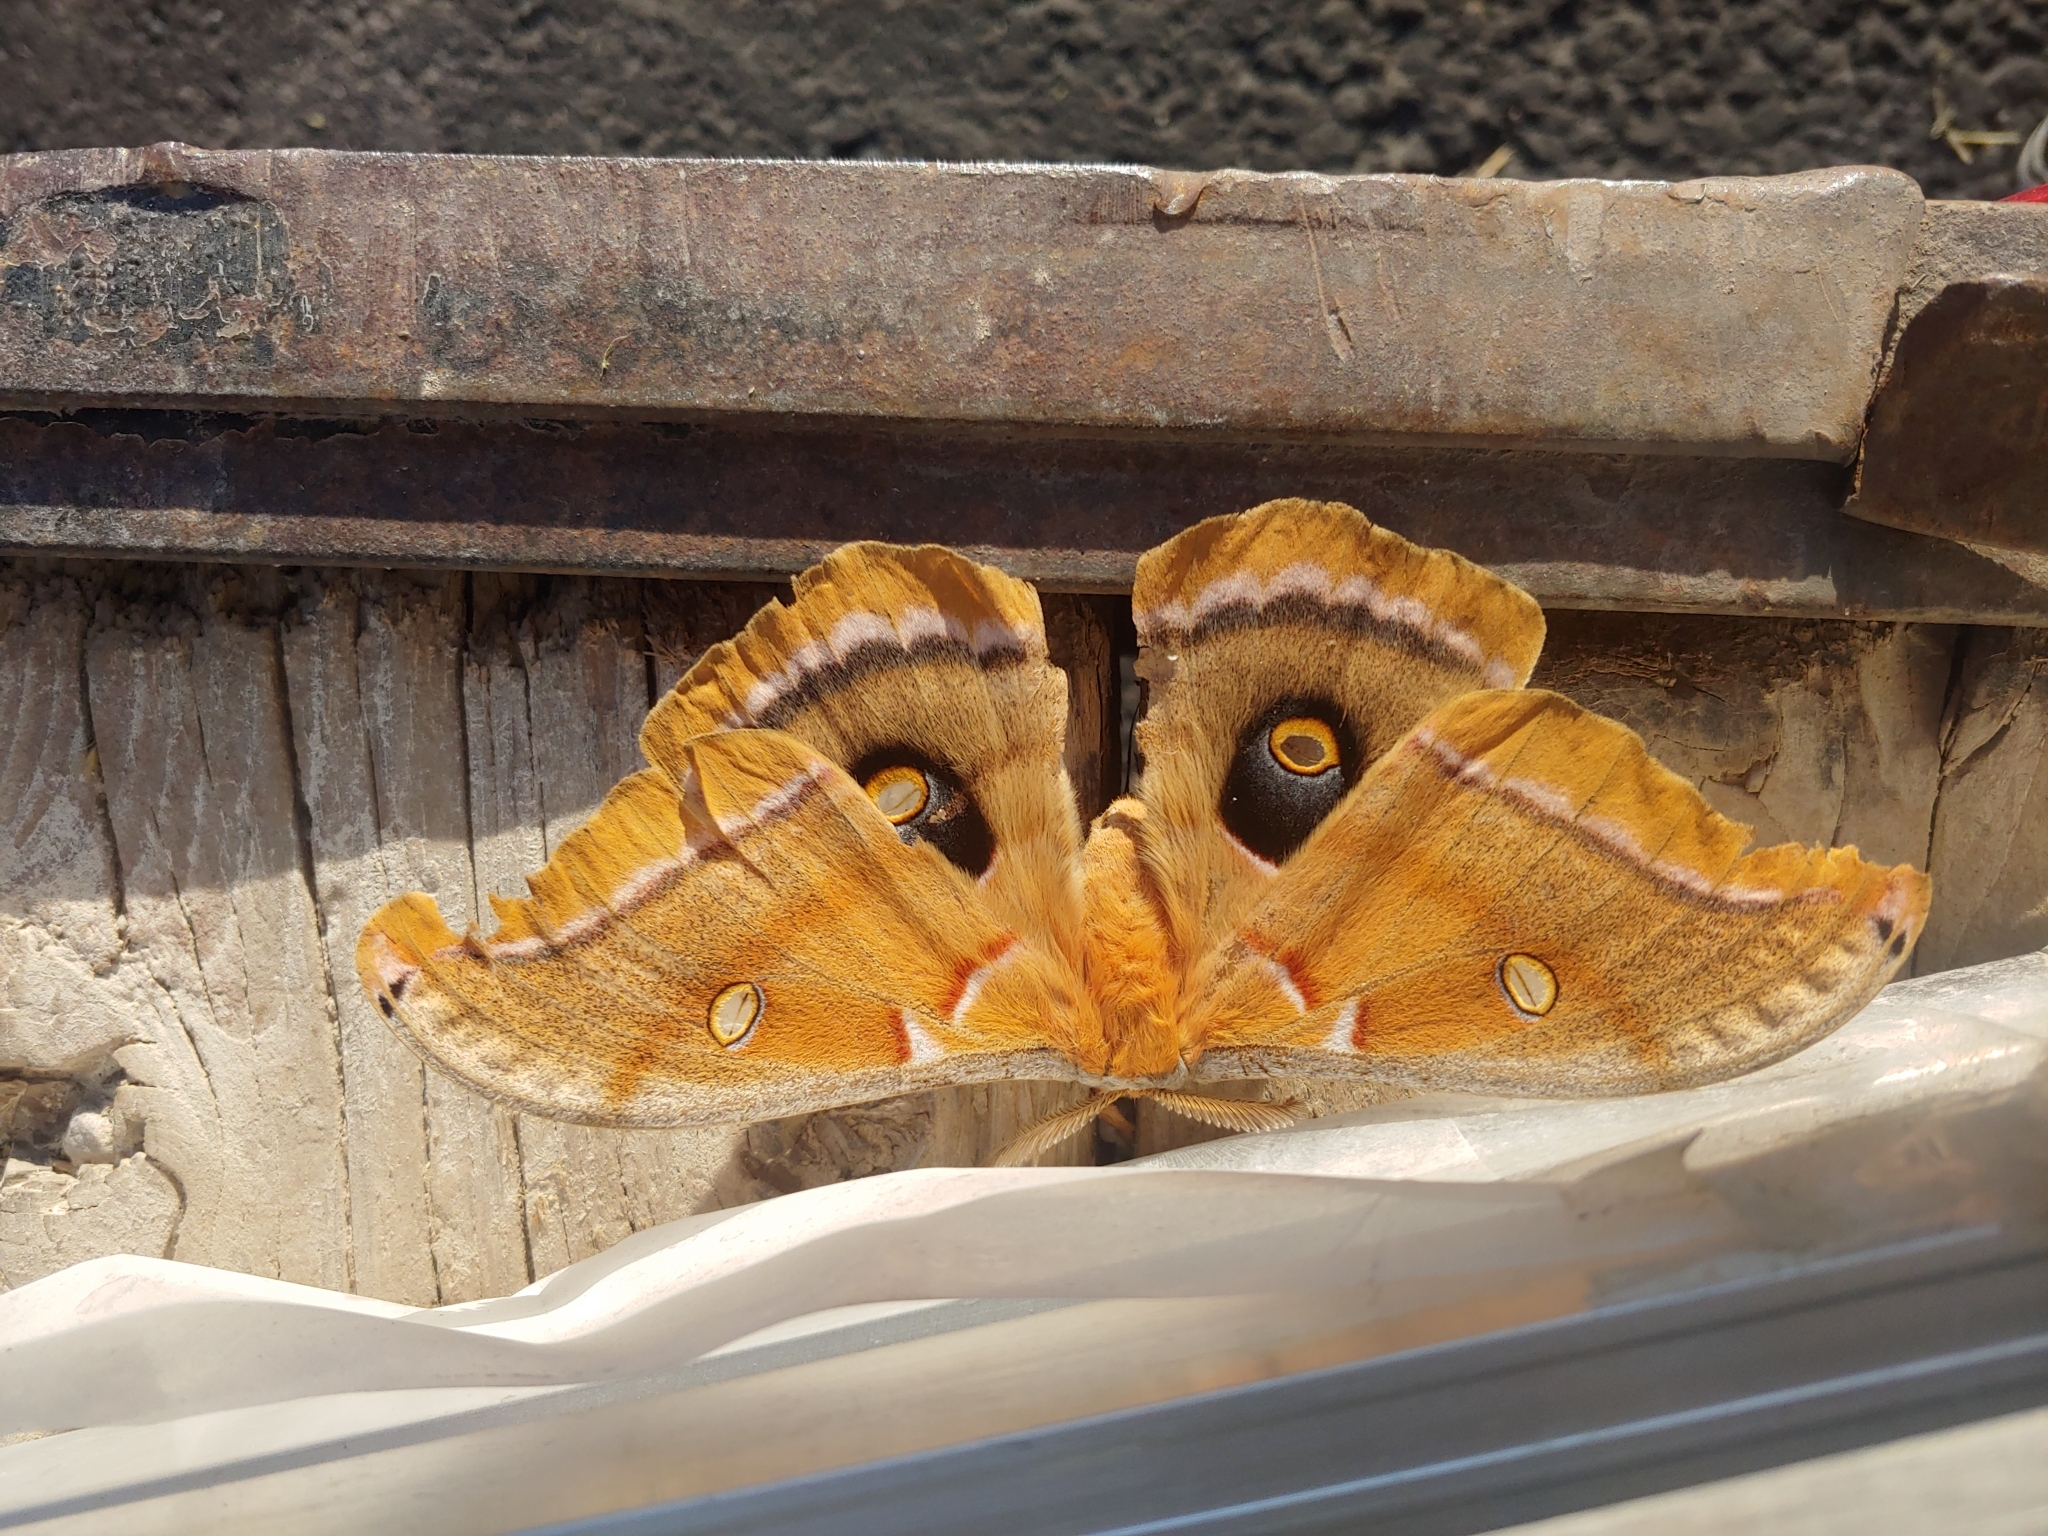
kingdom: Animalia
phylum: Arthropoda
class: Insecta
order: Lepidoptera
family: Saturniidae
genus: Antheraea
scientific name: Antheraea polyphemus
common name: Polyphemus moth
